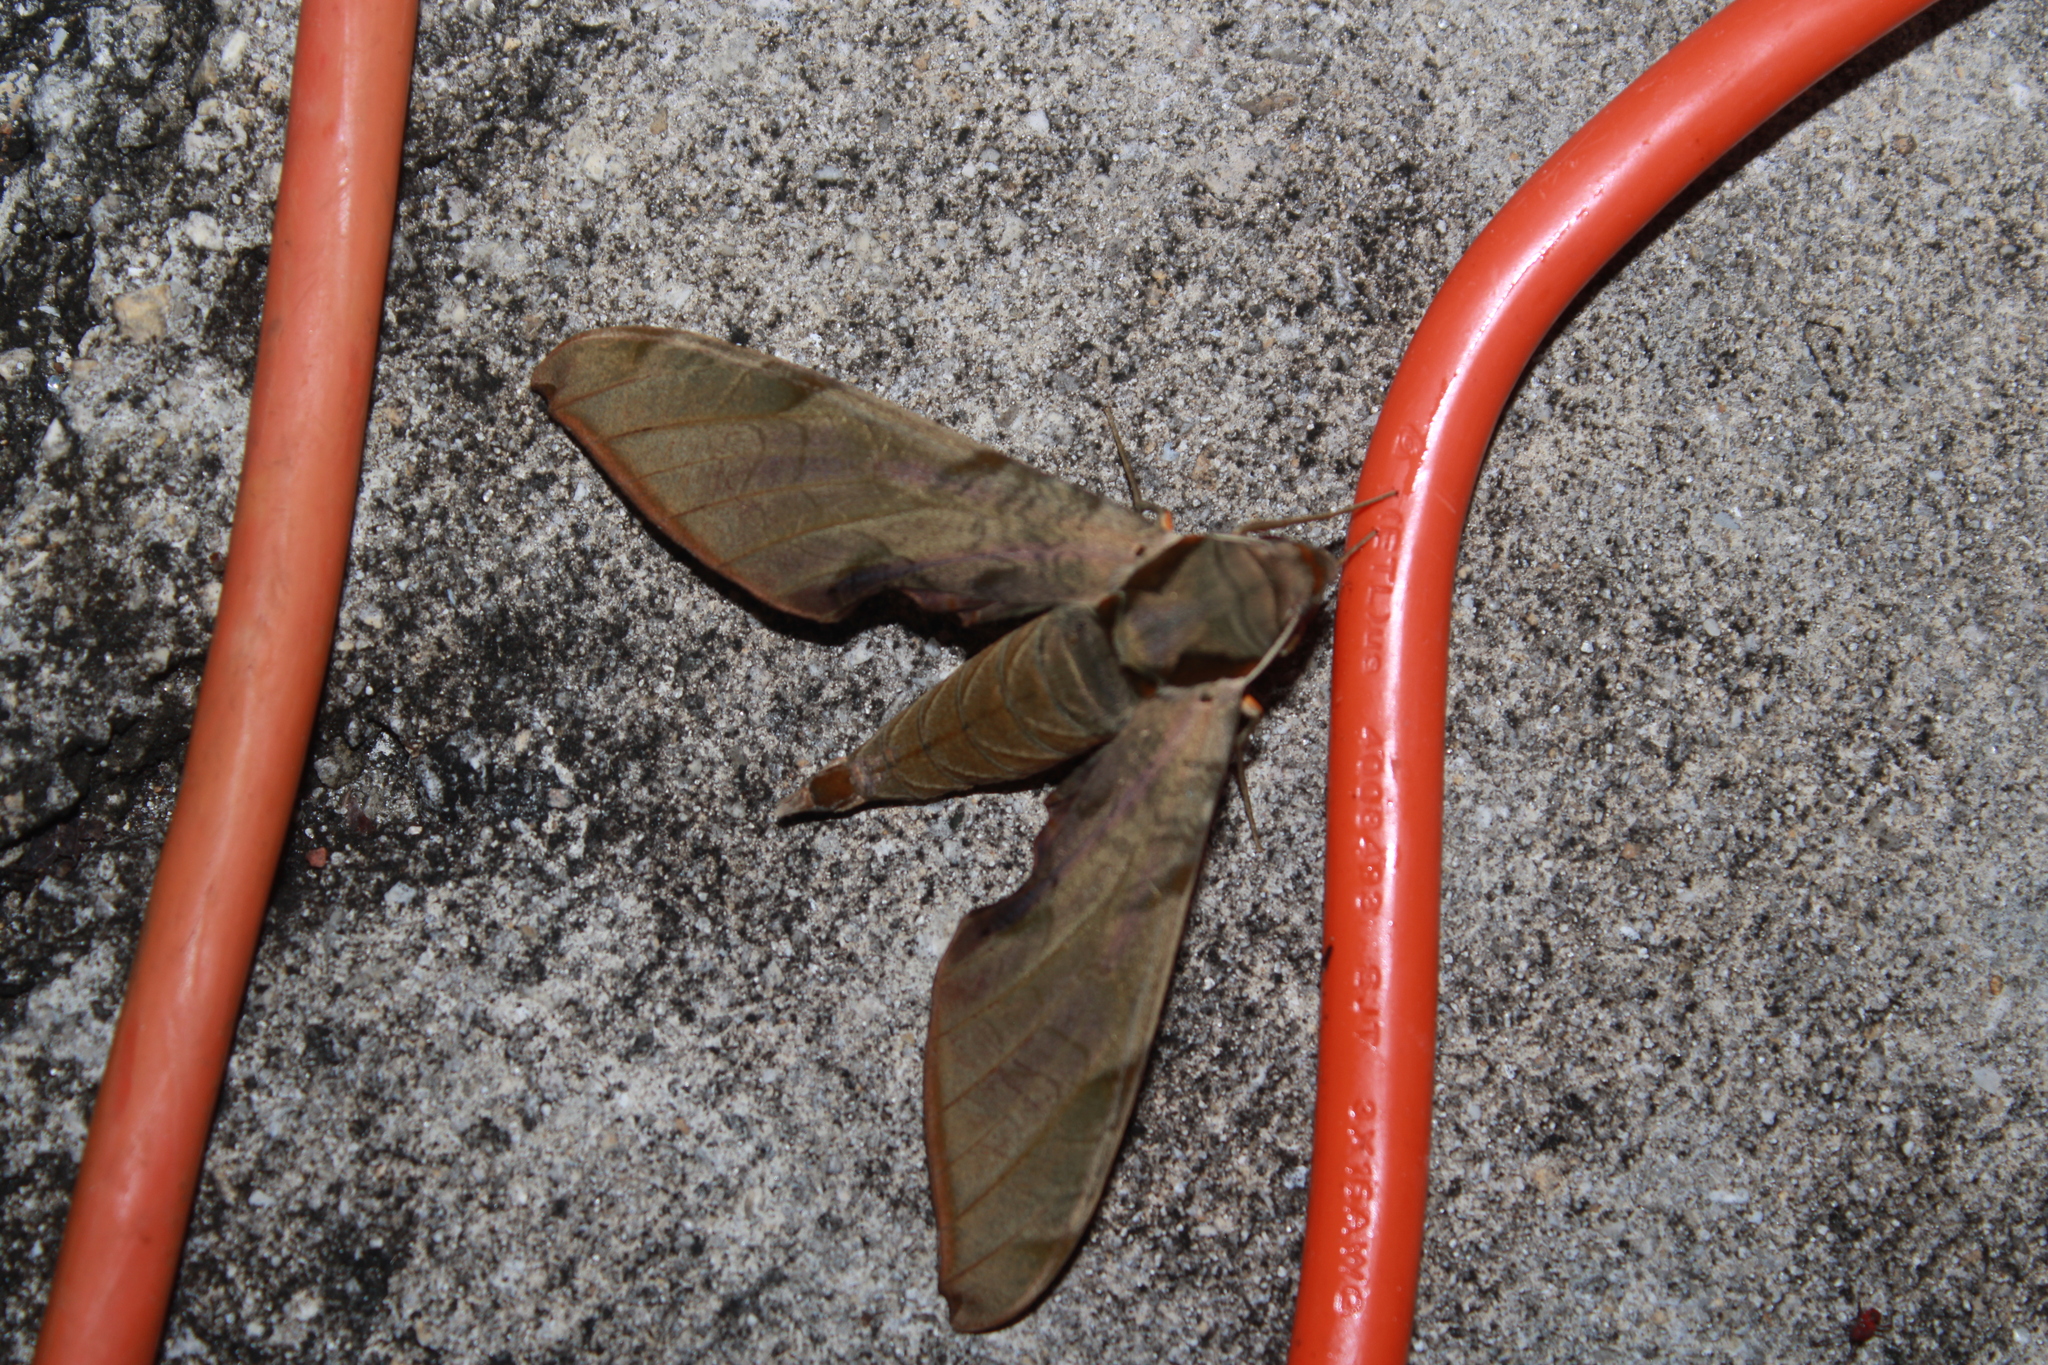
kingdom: Animalia
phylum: Arthropoda
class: Insecta
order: Lepidoptera
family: Sphingidae
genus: Protambulyx
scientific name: Protambulyx strigilis
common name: Streaked sphinx
